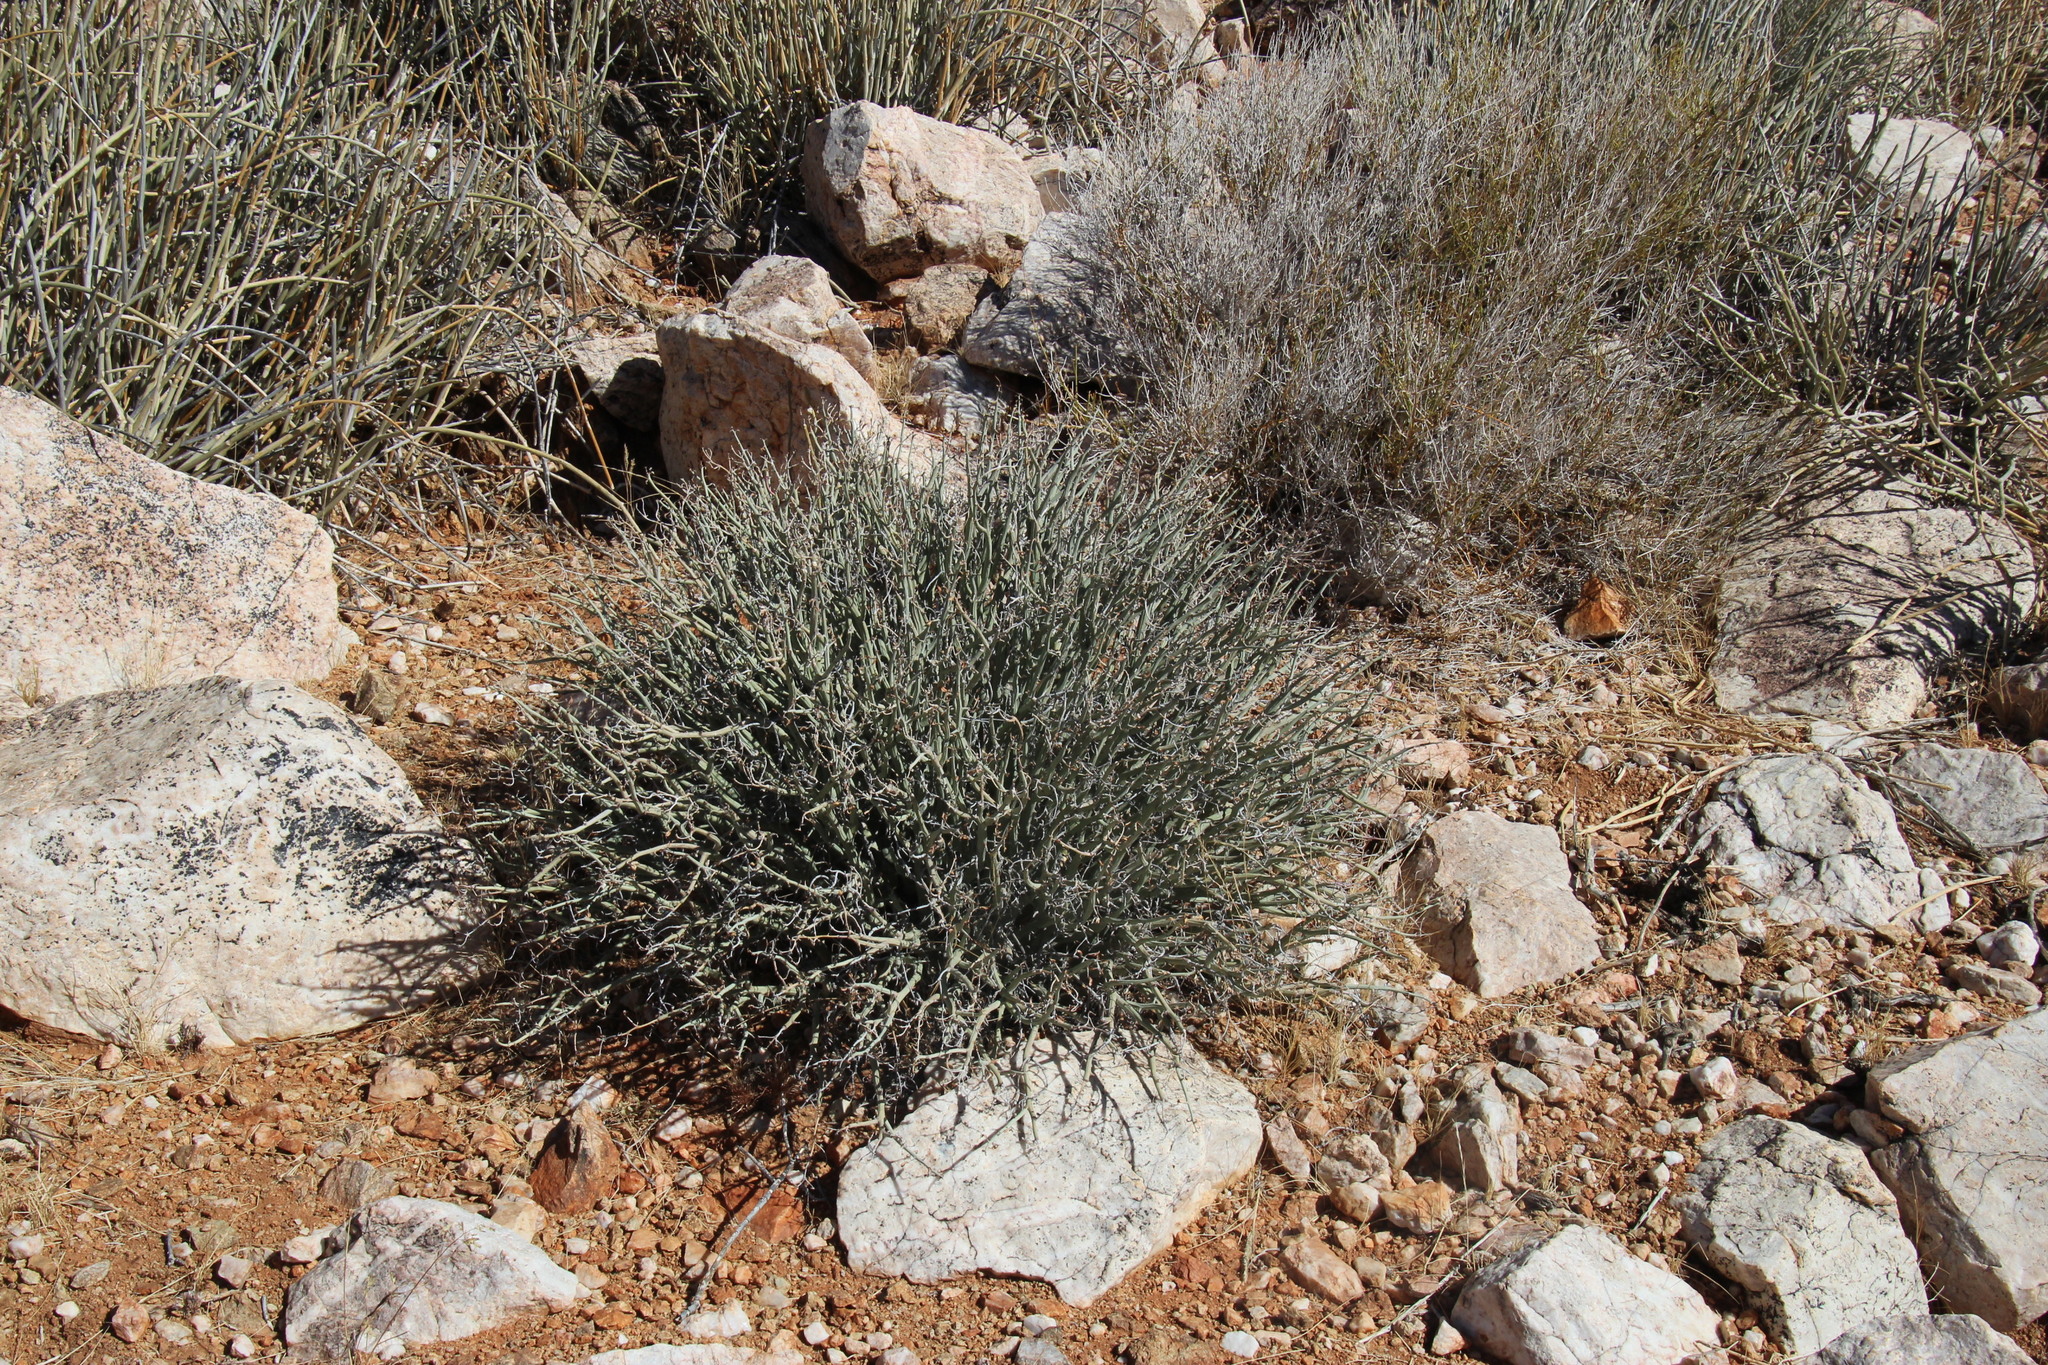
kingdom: Plantae
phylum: Tracheophyta
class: Magnoliopsida
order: Malpighiales
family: Euphorbiaceae
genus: Euphorbia
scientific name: Euphorbia gariepina
